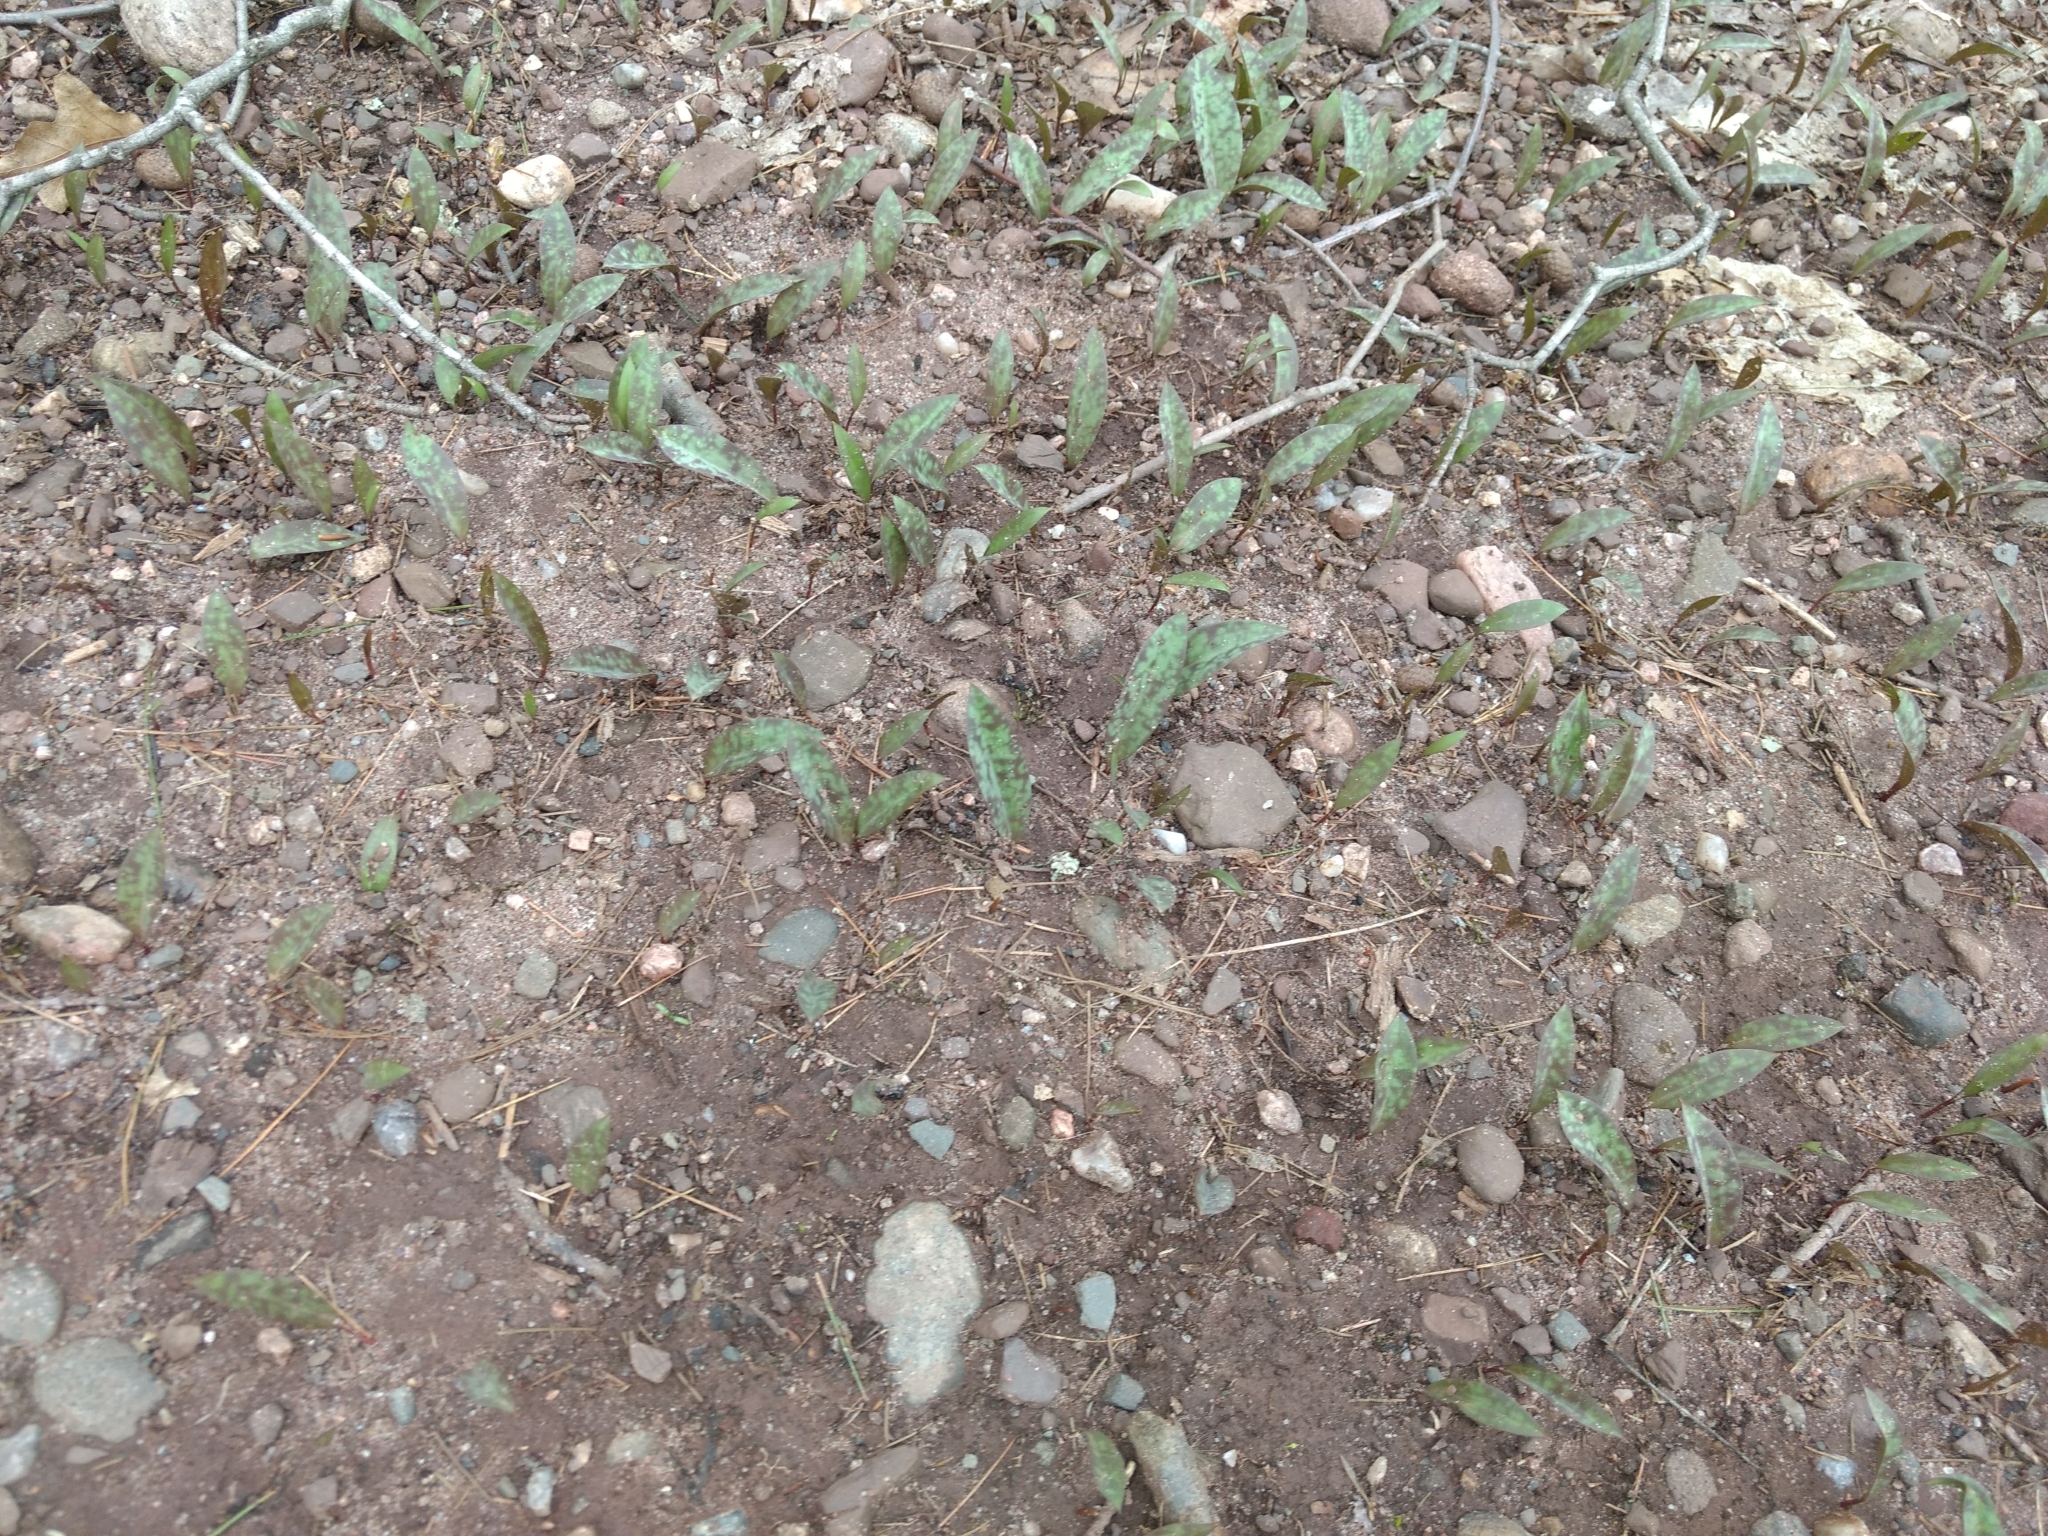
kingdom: Plantae
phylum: Tracheophyta
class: Liliopsida
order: Liliales
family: Liliaceae
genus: Erythronium
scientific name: Erythronium americanum
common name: Yellow adder's-tongue
